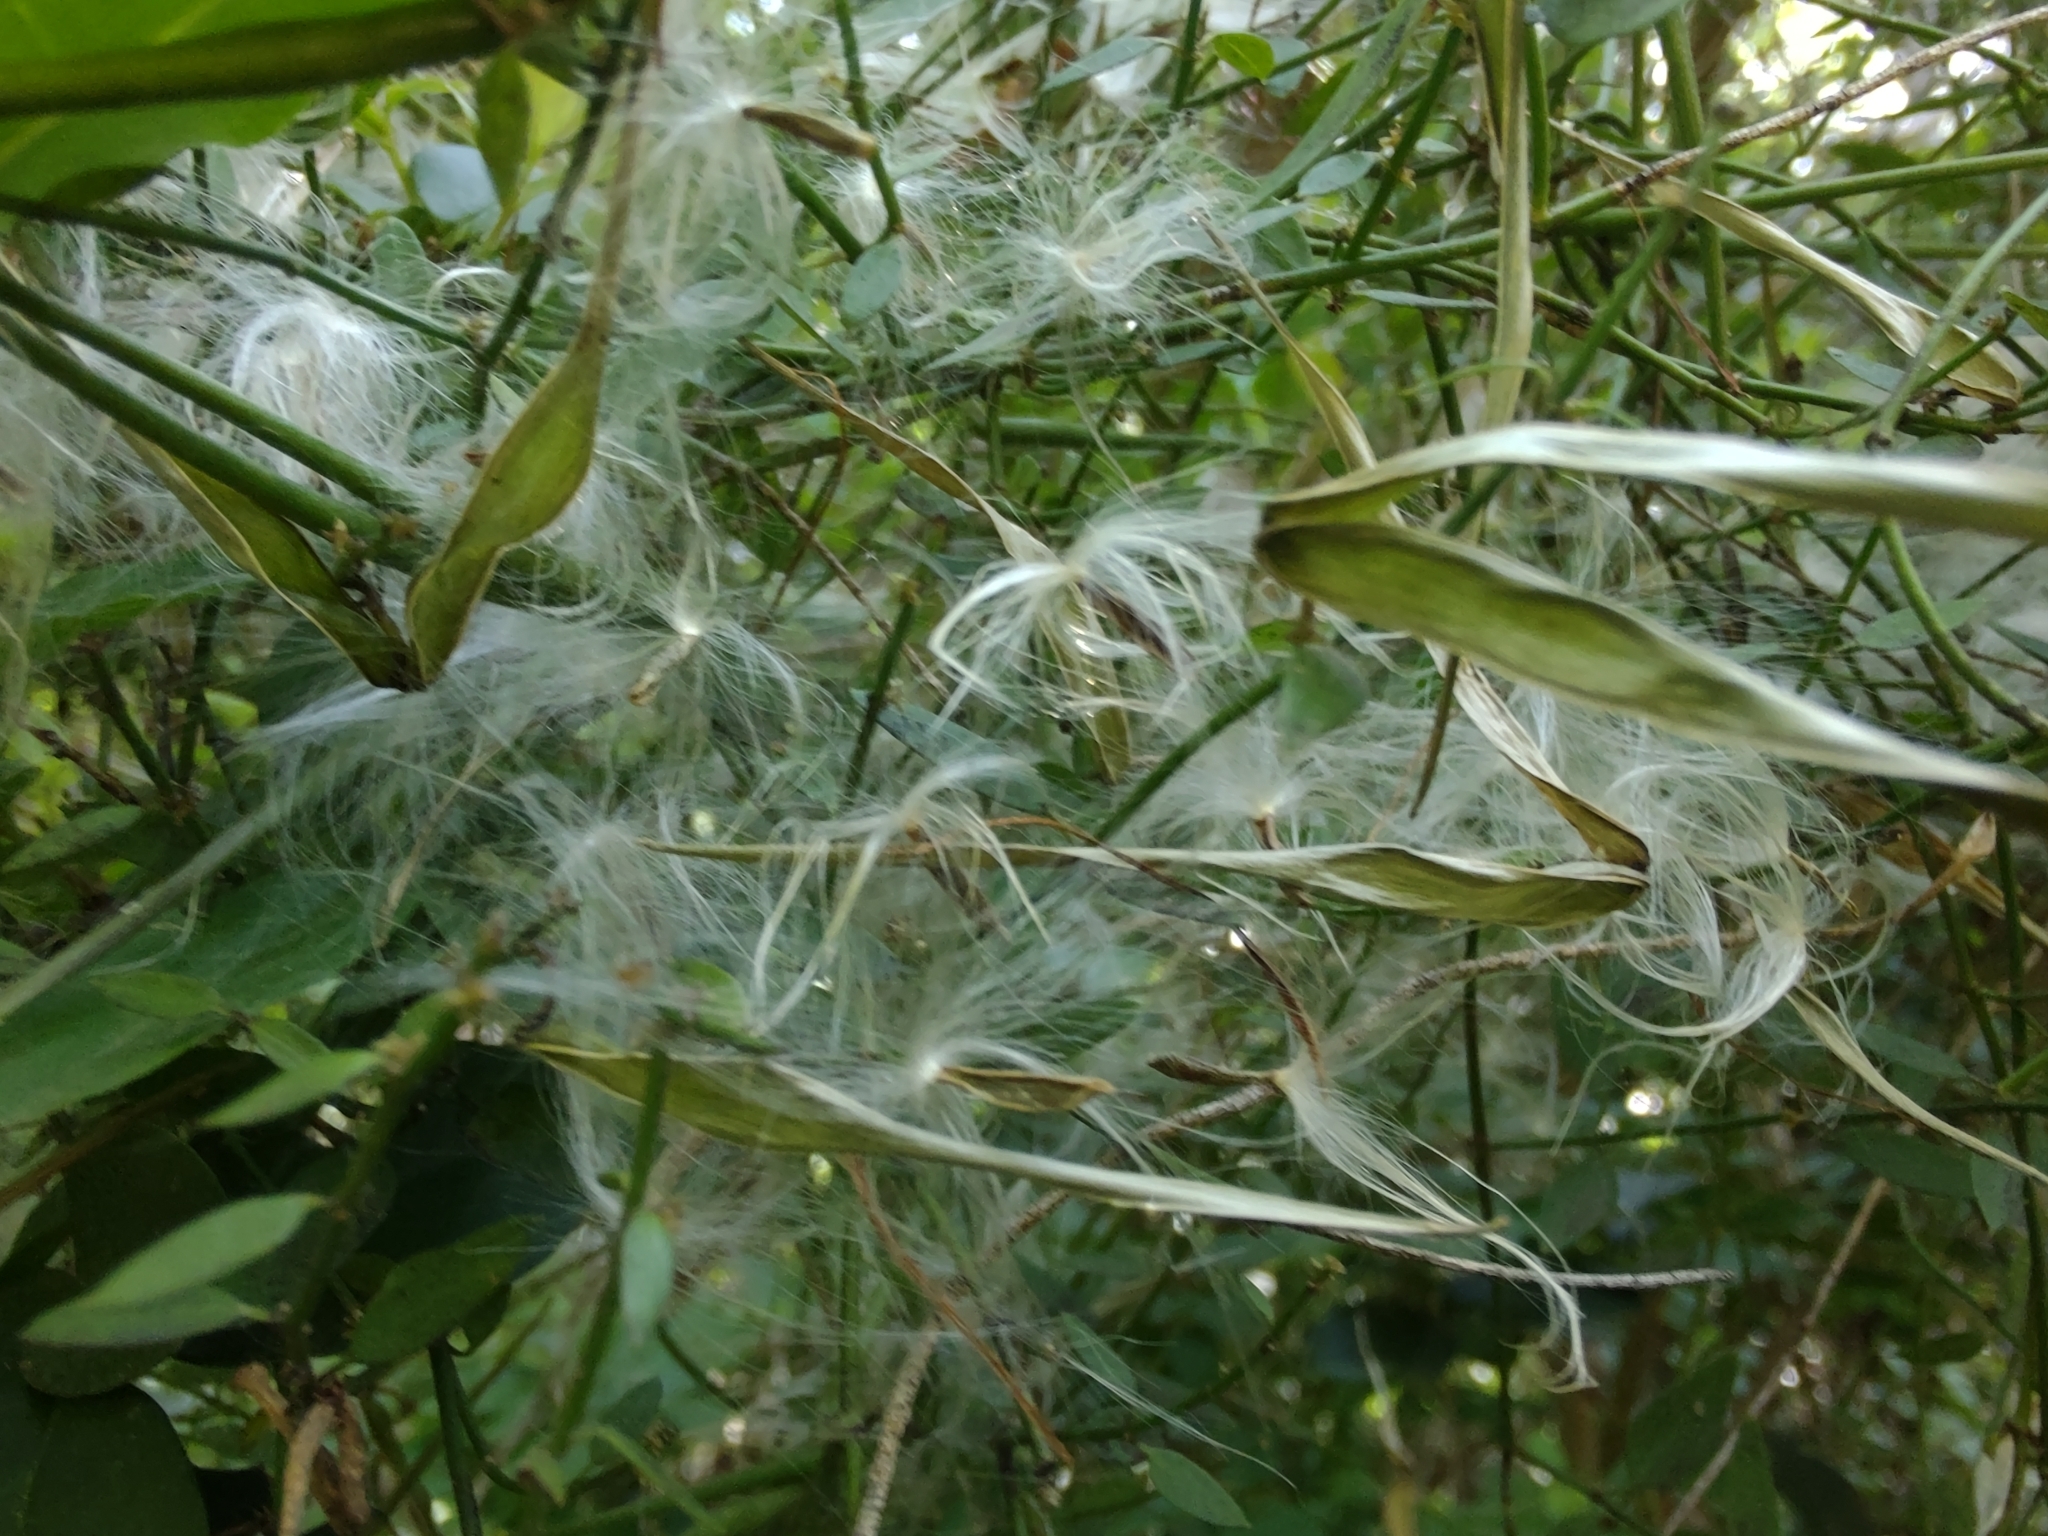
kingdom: Plantae
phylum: Tracheophyta
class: Magnoliopsida
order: Gentianales
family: Apocynaceae
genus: Orthosia
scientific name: Orthosia virgata
